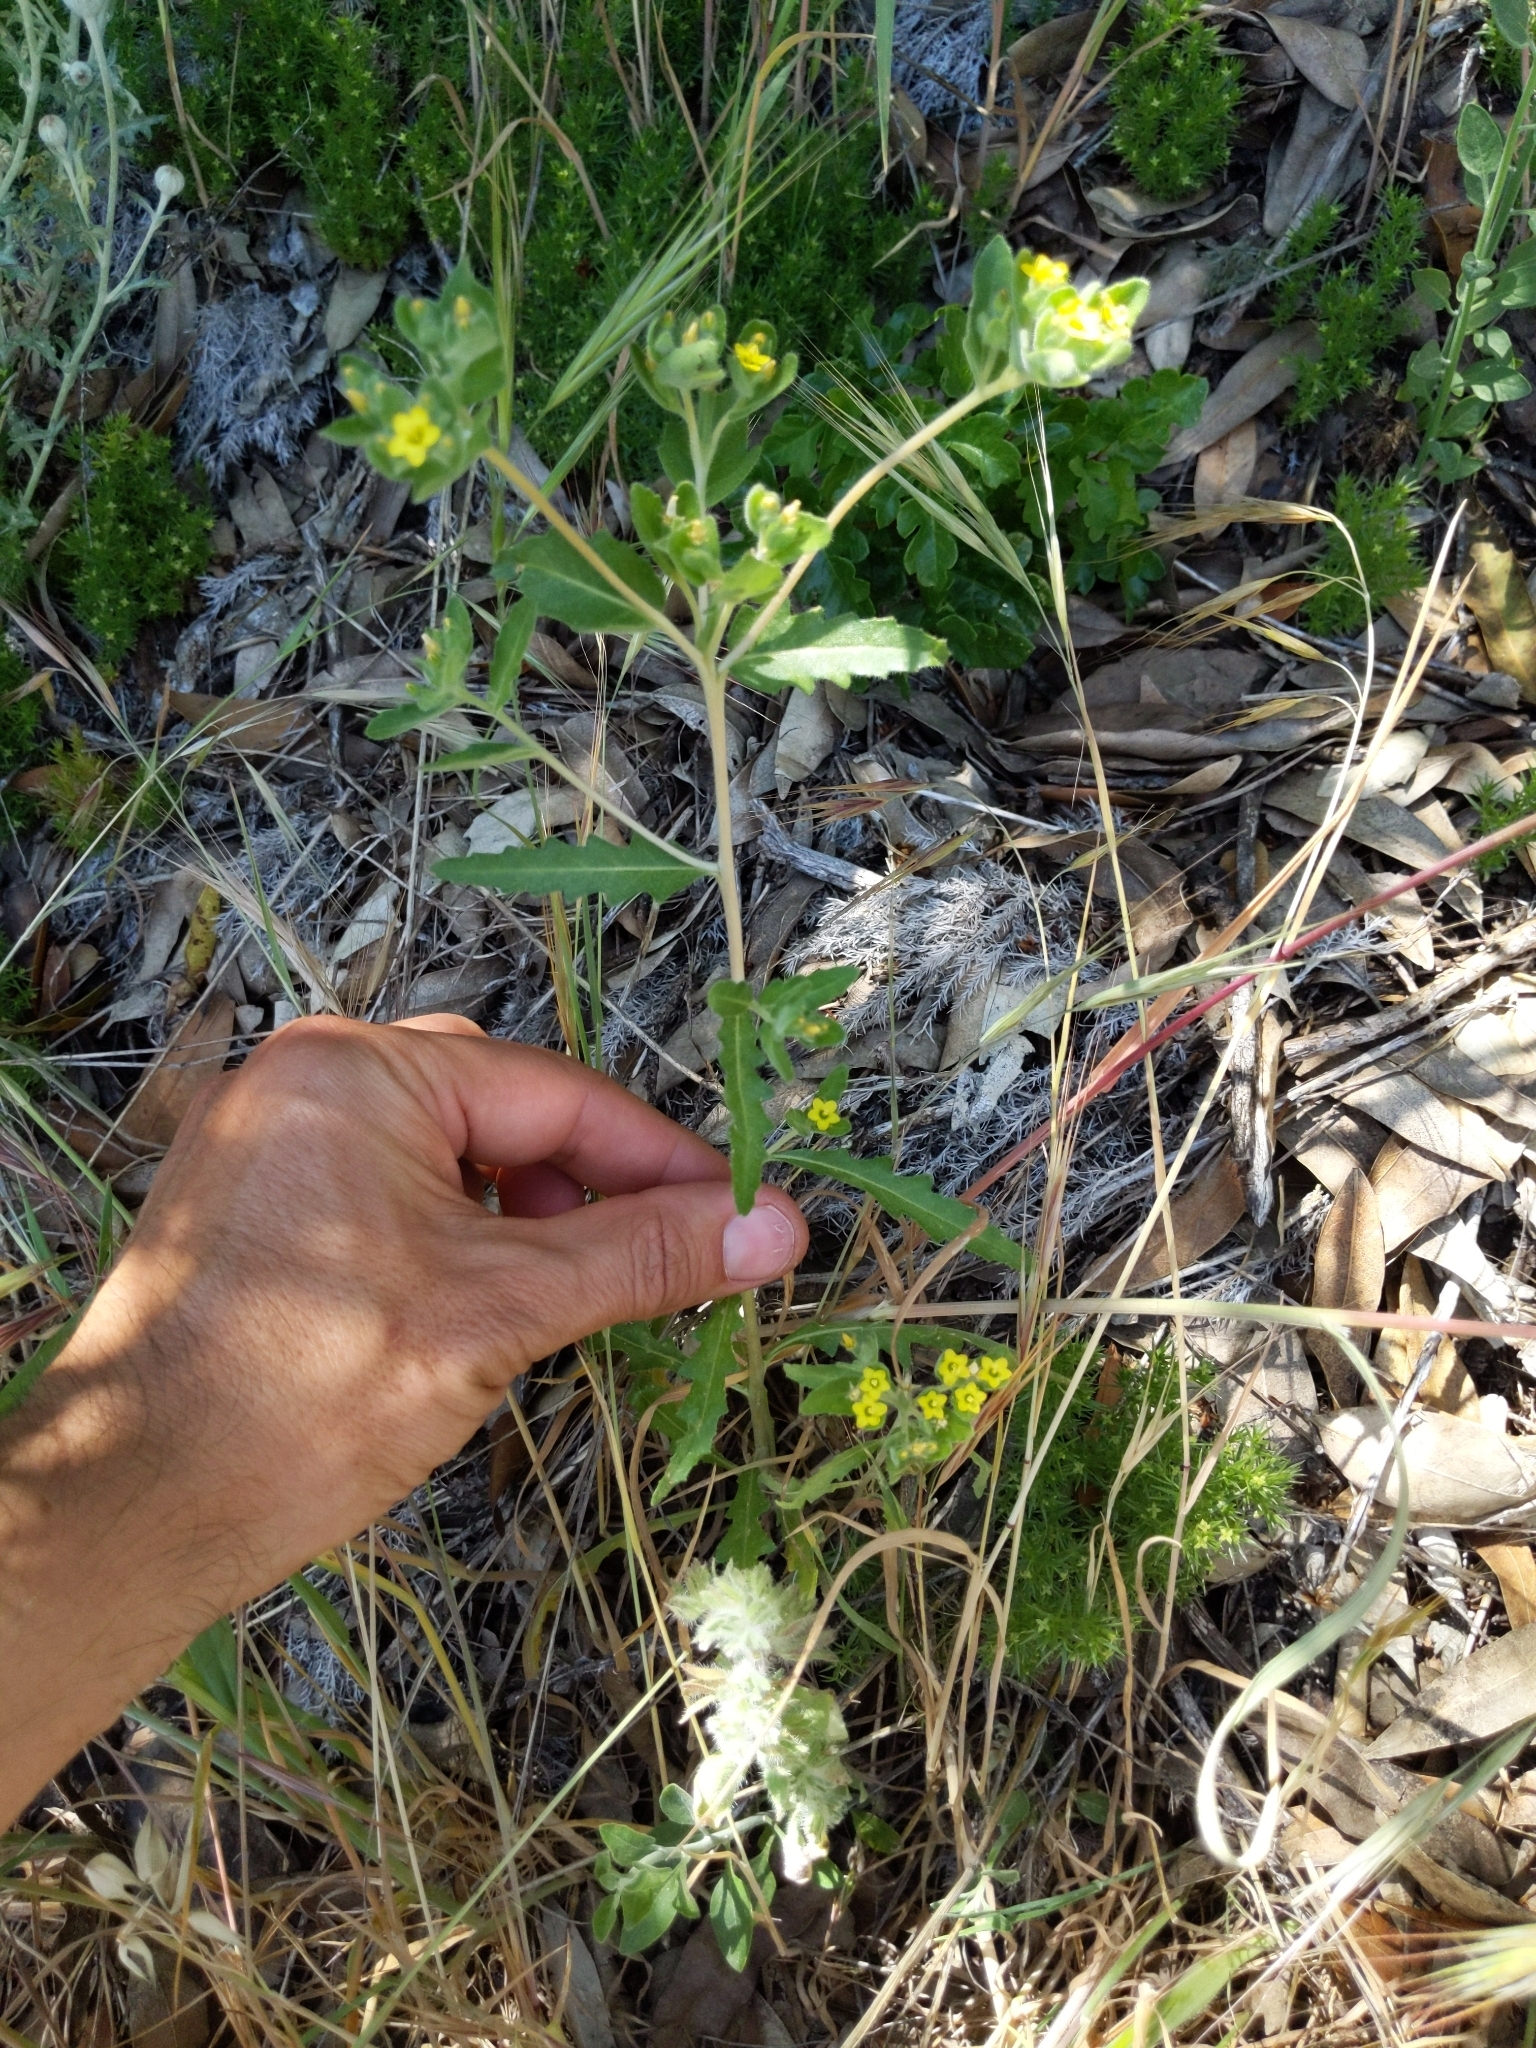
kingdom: Plantae
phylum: Tracheophyta
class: Magnoliopsida
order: Cornales
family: Loasaceae
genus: Mentzelia
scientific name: Mentzelia micrantha
